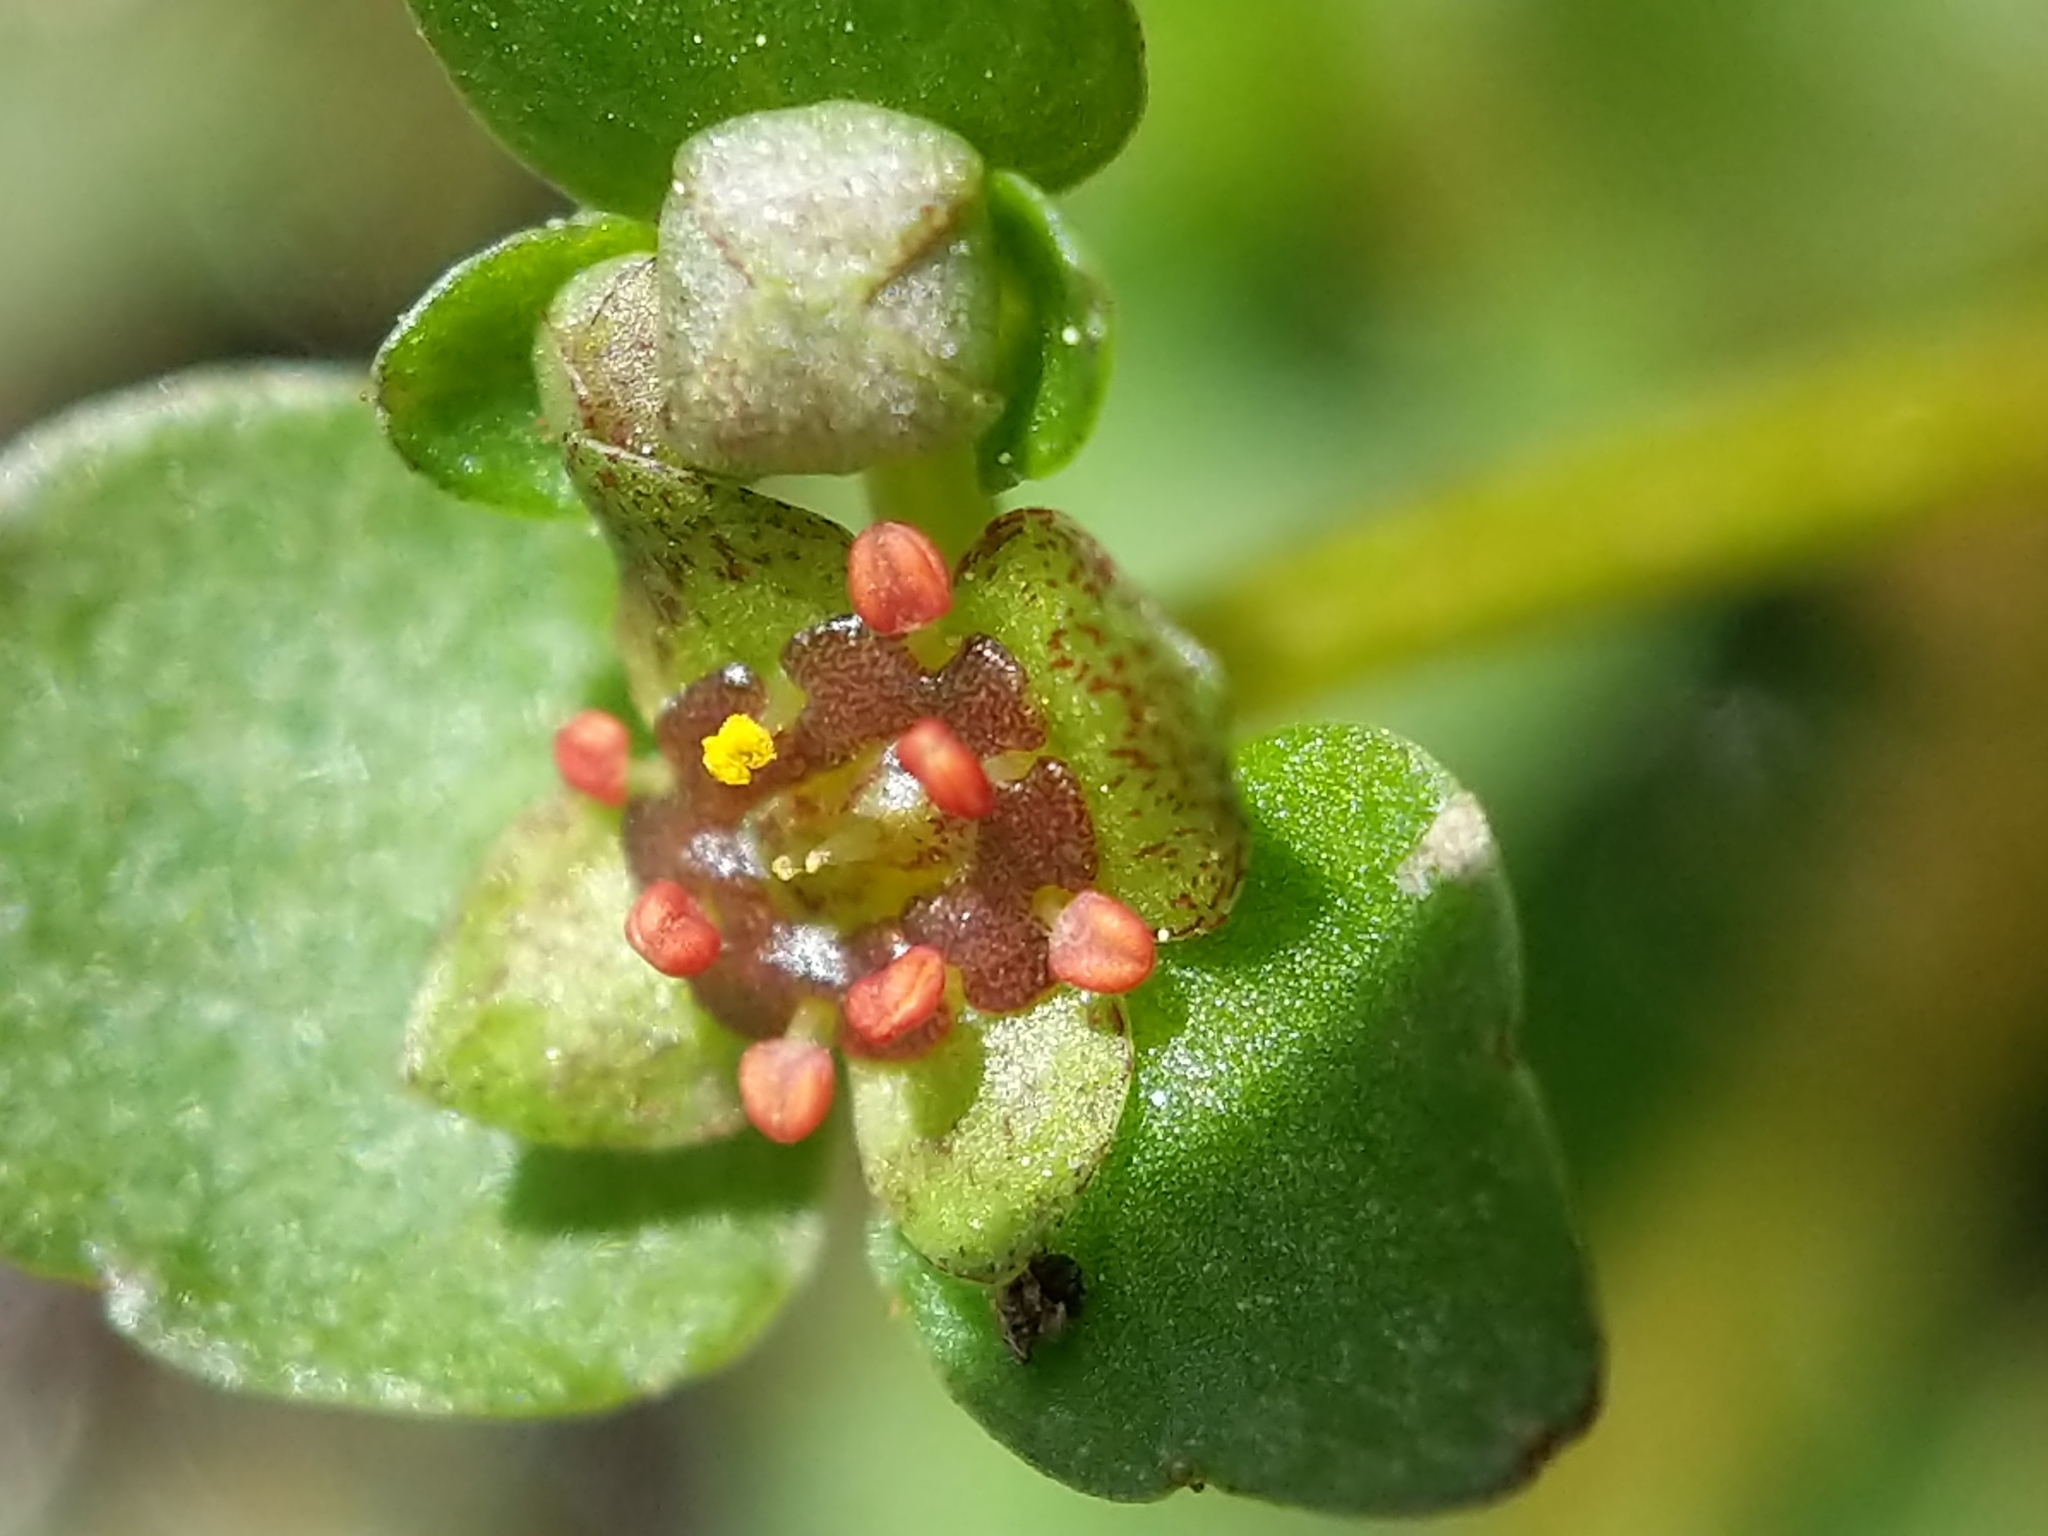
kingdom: Plantae
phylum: Tracheophyta
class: Magnoliopsida
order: Saxifragales
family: Saxifragaceae
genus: Chrysosplenium
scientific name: Chrysosplenium americanum
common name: American golden-saxifrage
